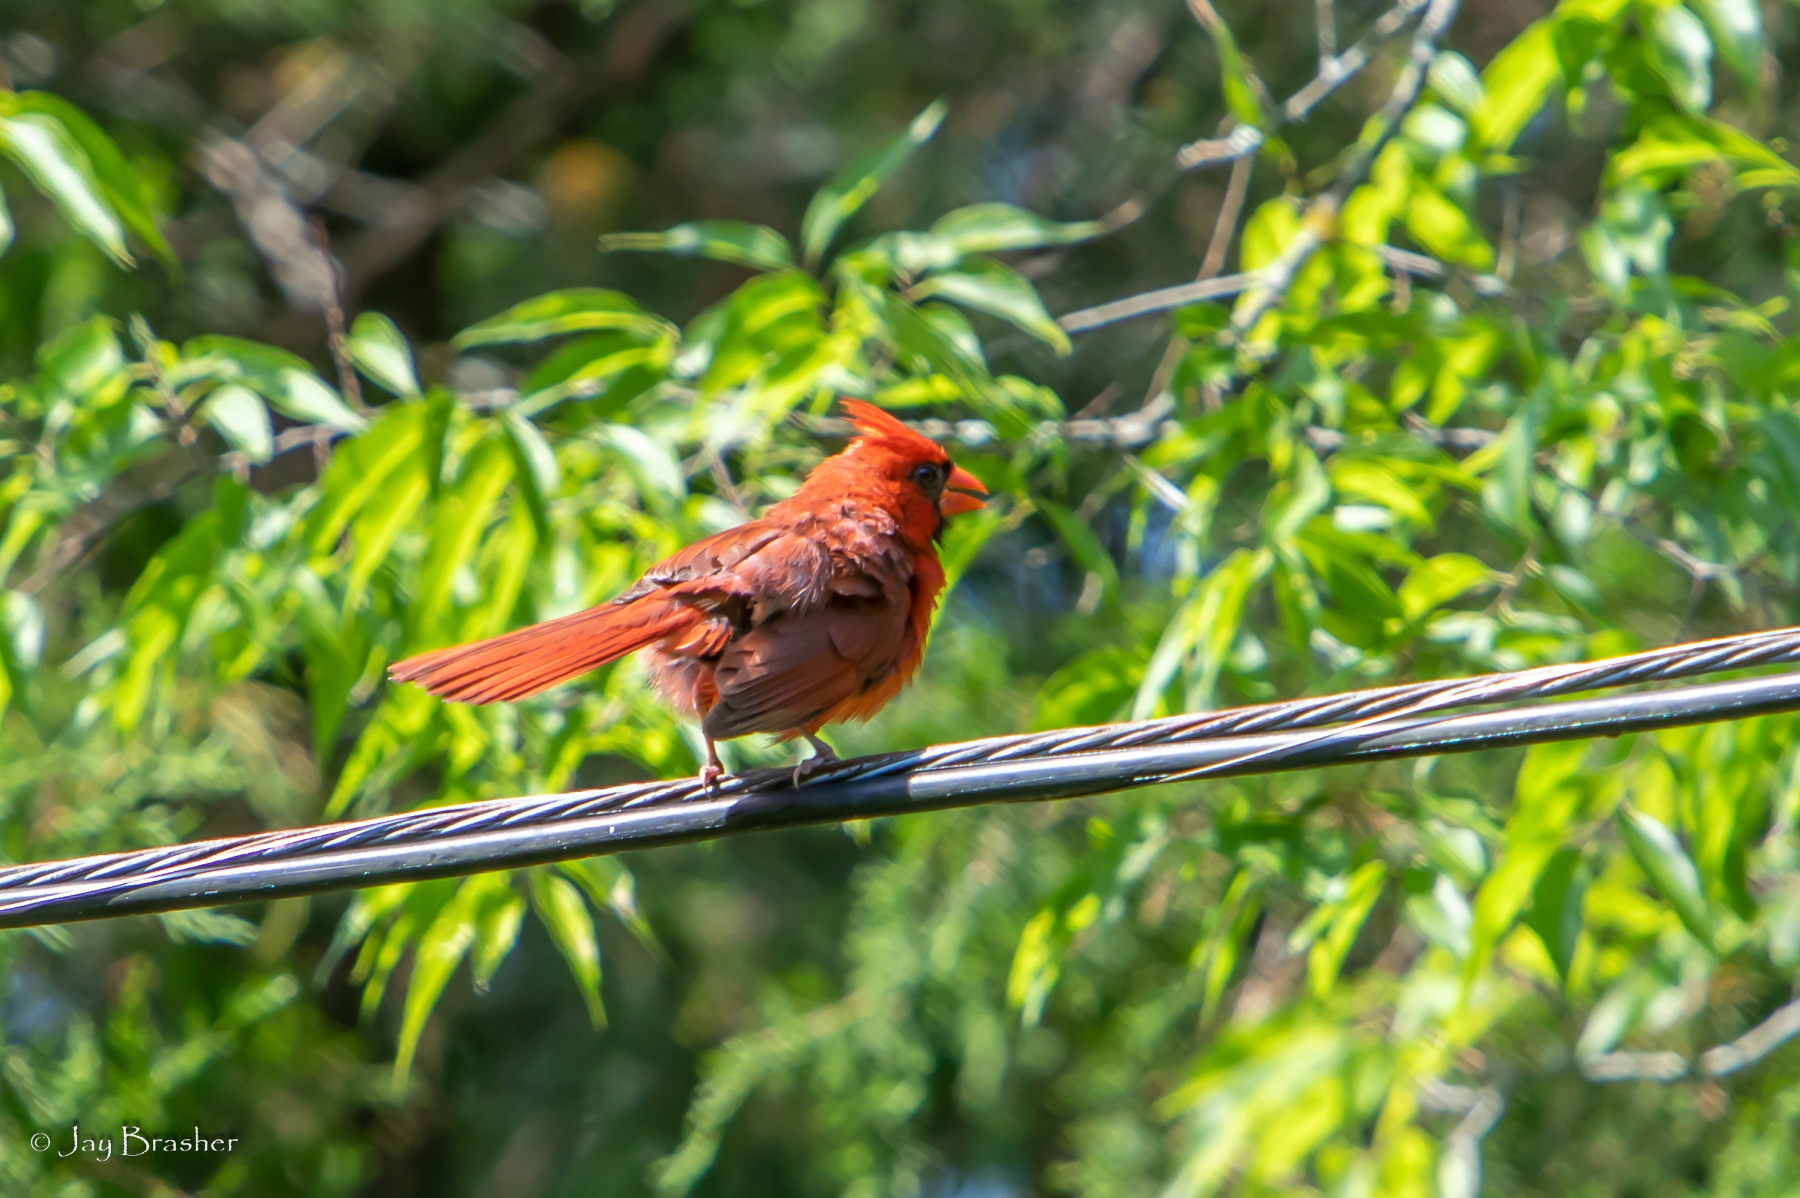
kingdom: Animalia
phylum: Chordata
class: Aves
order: Passeriformes
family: Cardinalidae
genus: Cardinalis
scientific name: Cardinalis cardinalis
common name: Northern cardinal
